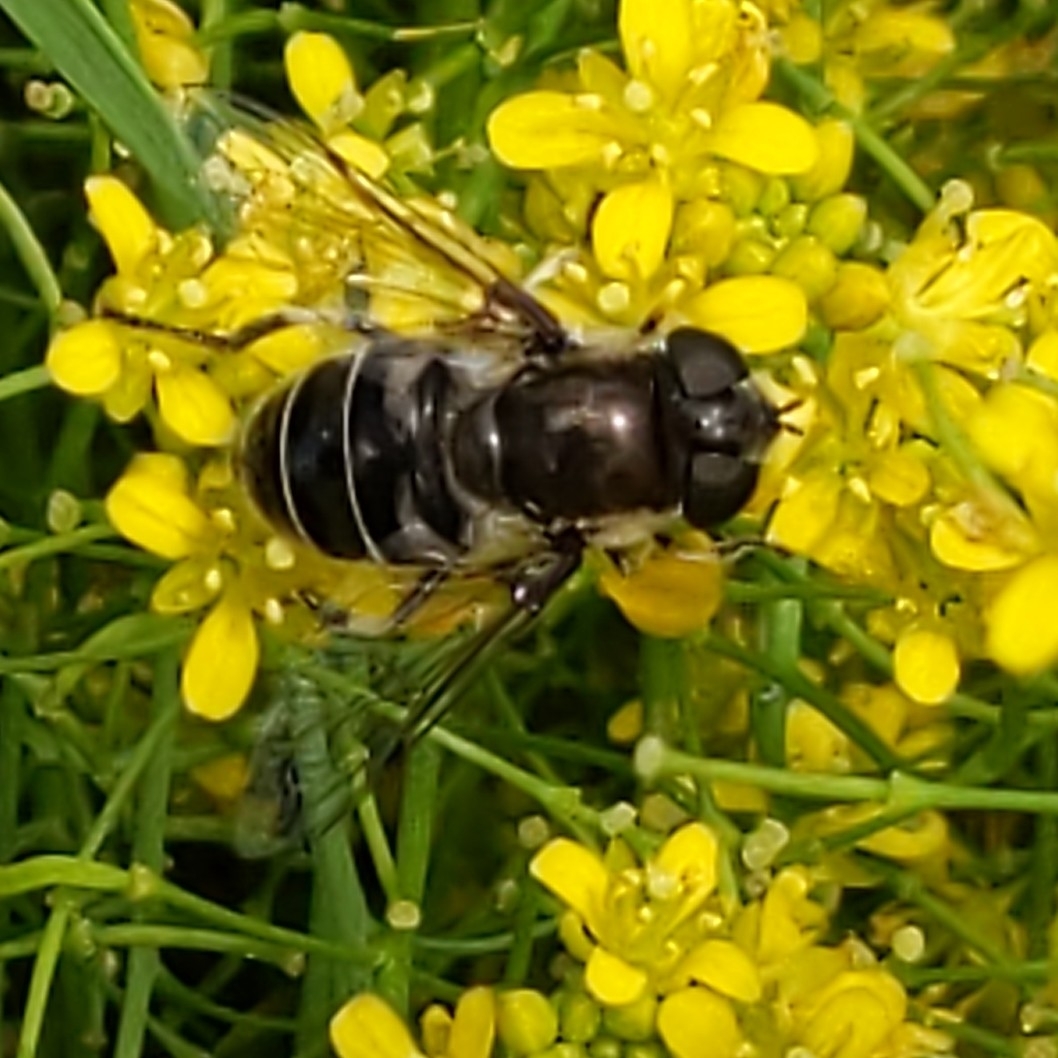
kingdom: Animalia
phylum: Arthropoda
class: Insecta
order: Diptera
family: Syrphidae
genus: Eristalis
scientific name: Eristalis dimidiata
